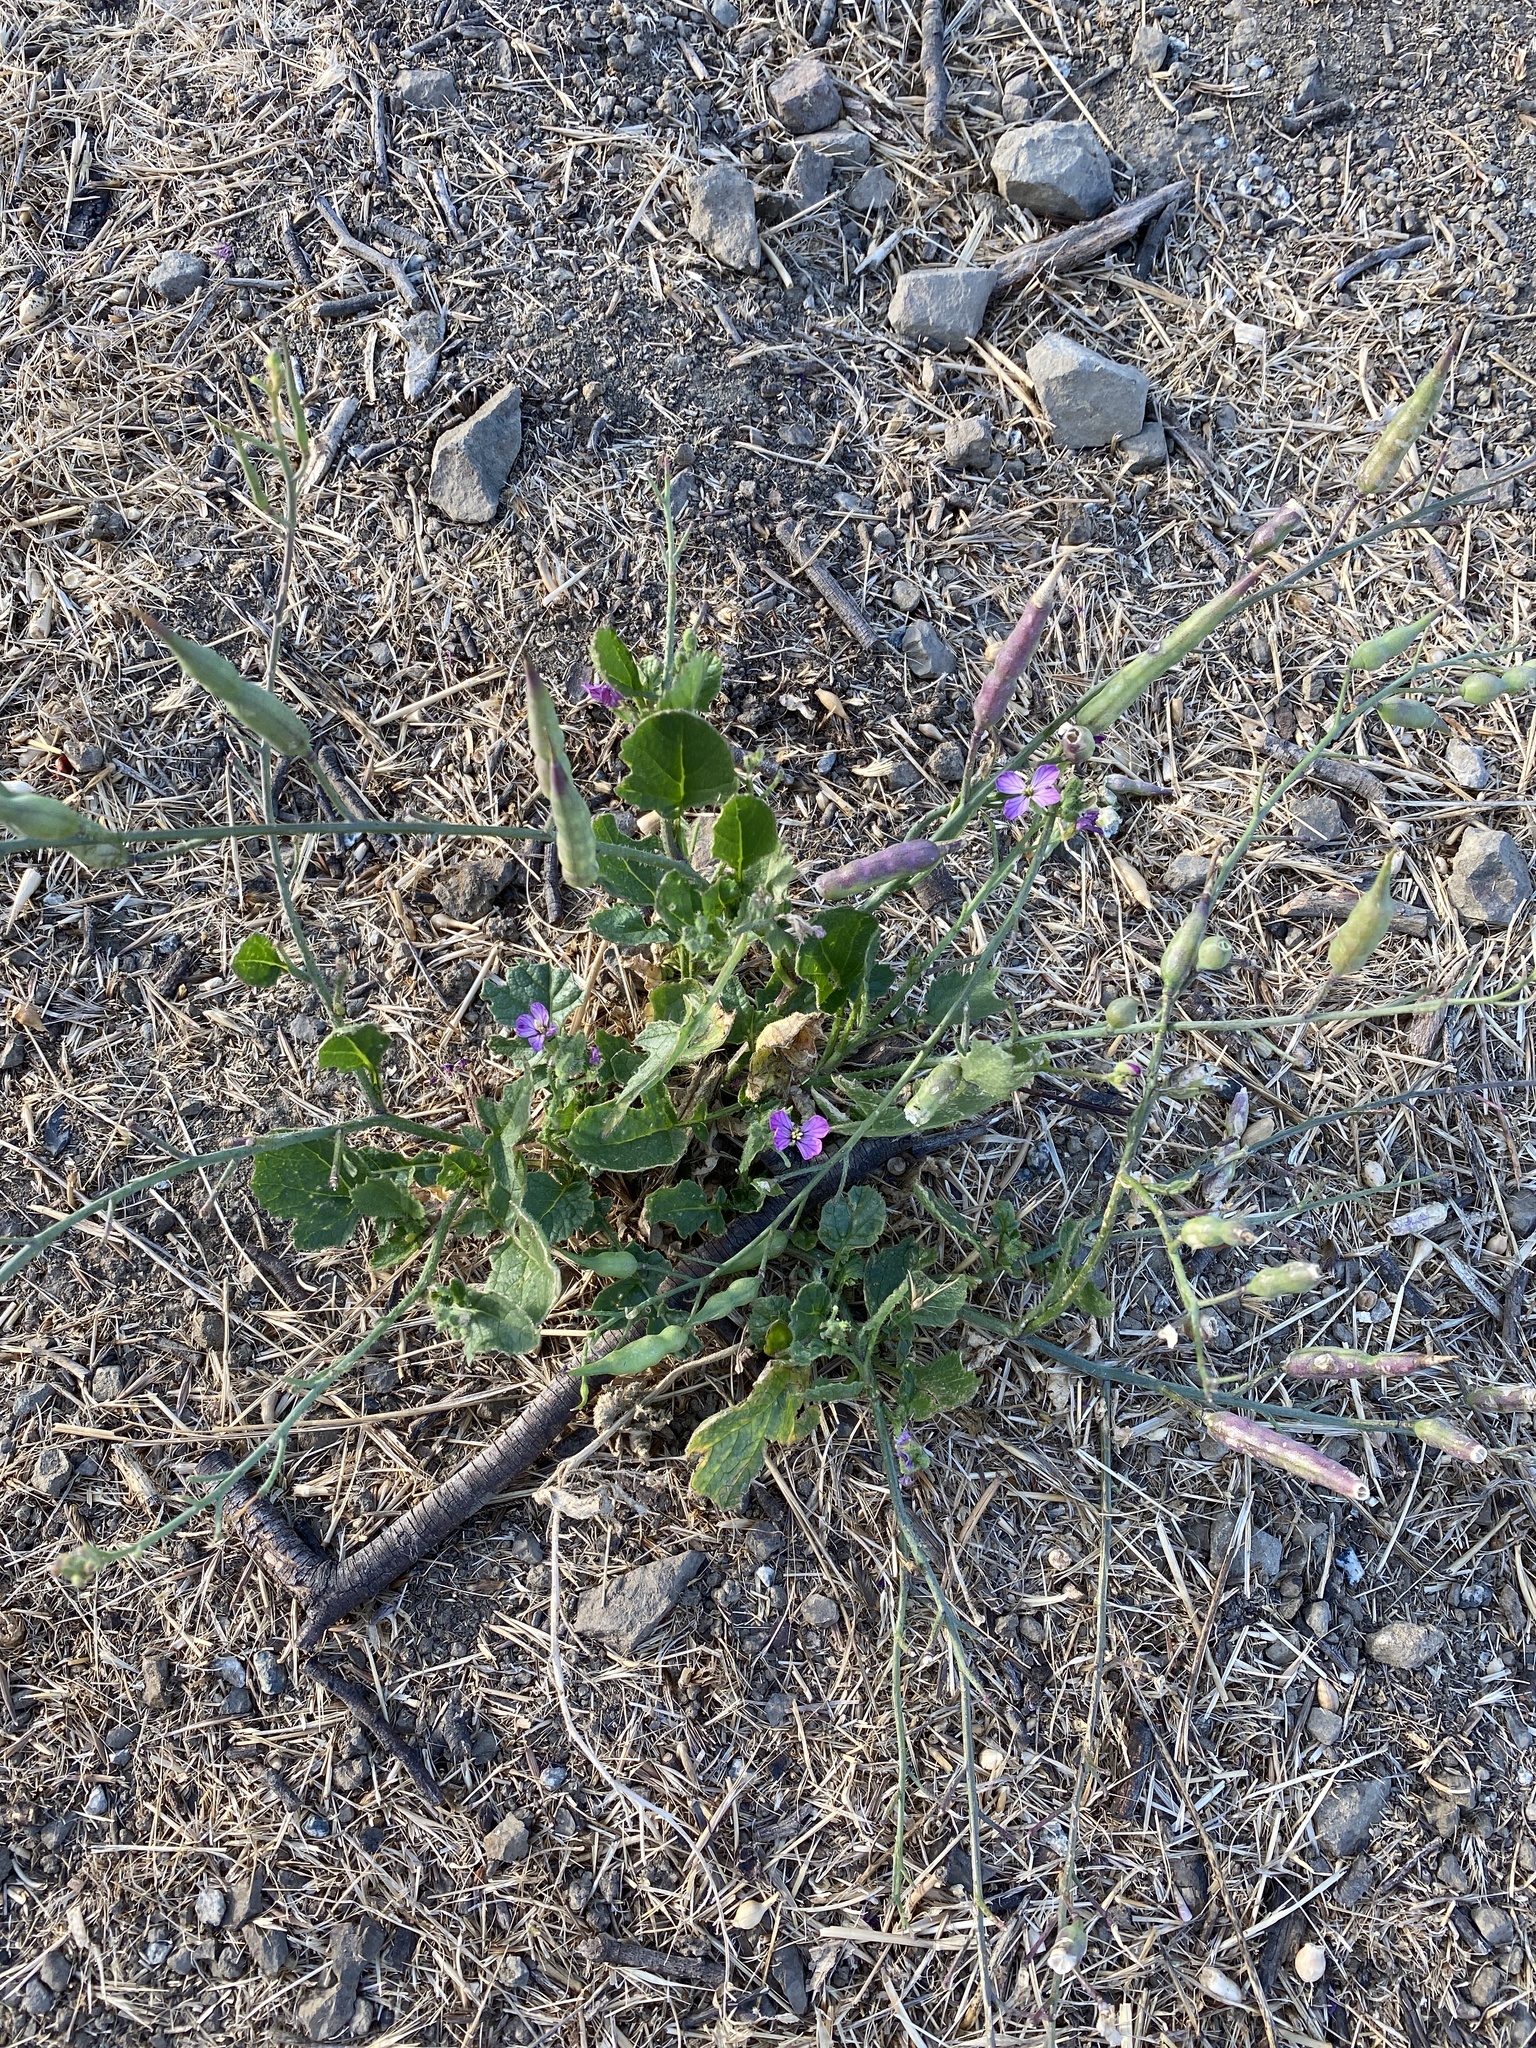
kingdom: Plantae
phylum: Tracheophyta
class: Magnoliopsida
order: Brassicales
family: Brassicaceae
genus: Raphanus
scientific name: Raphanus sativus
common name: Cultivated radish
